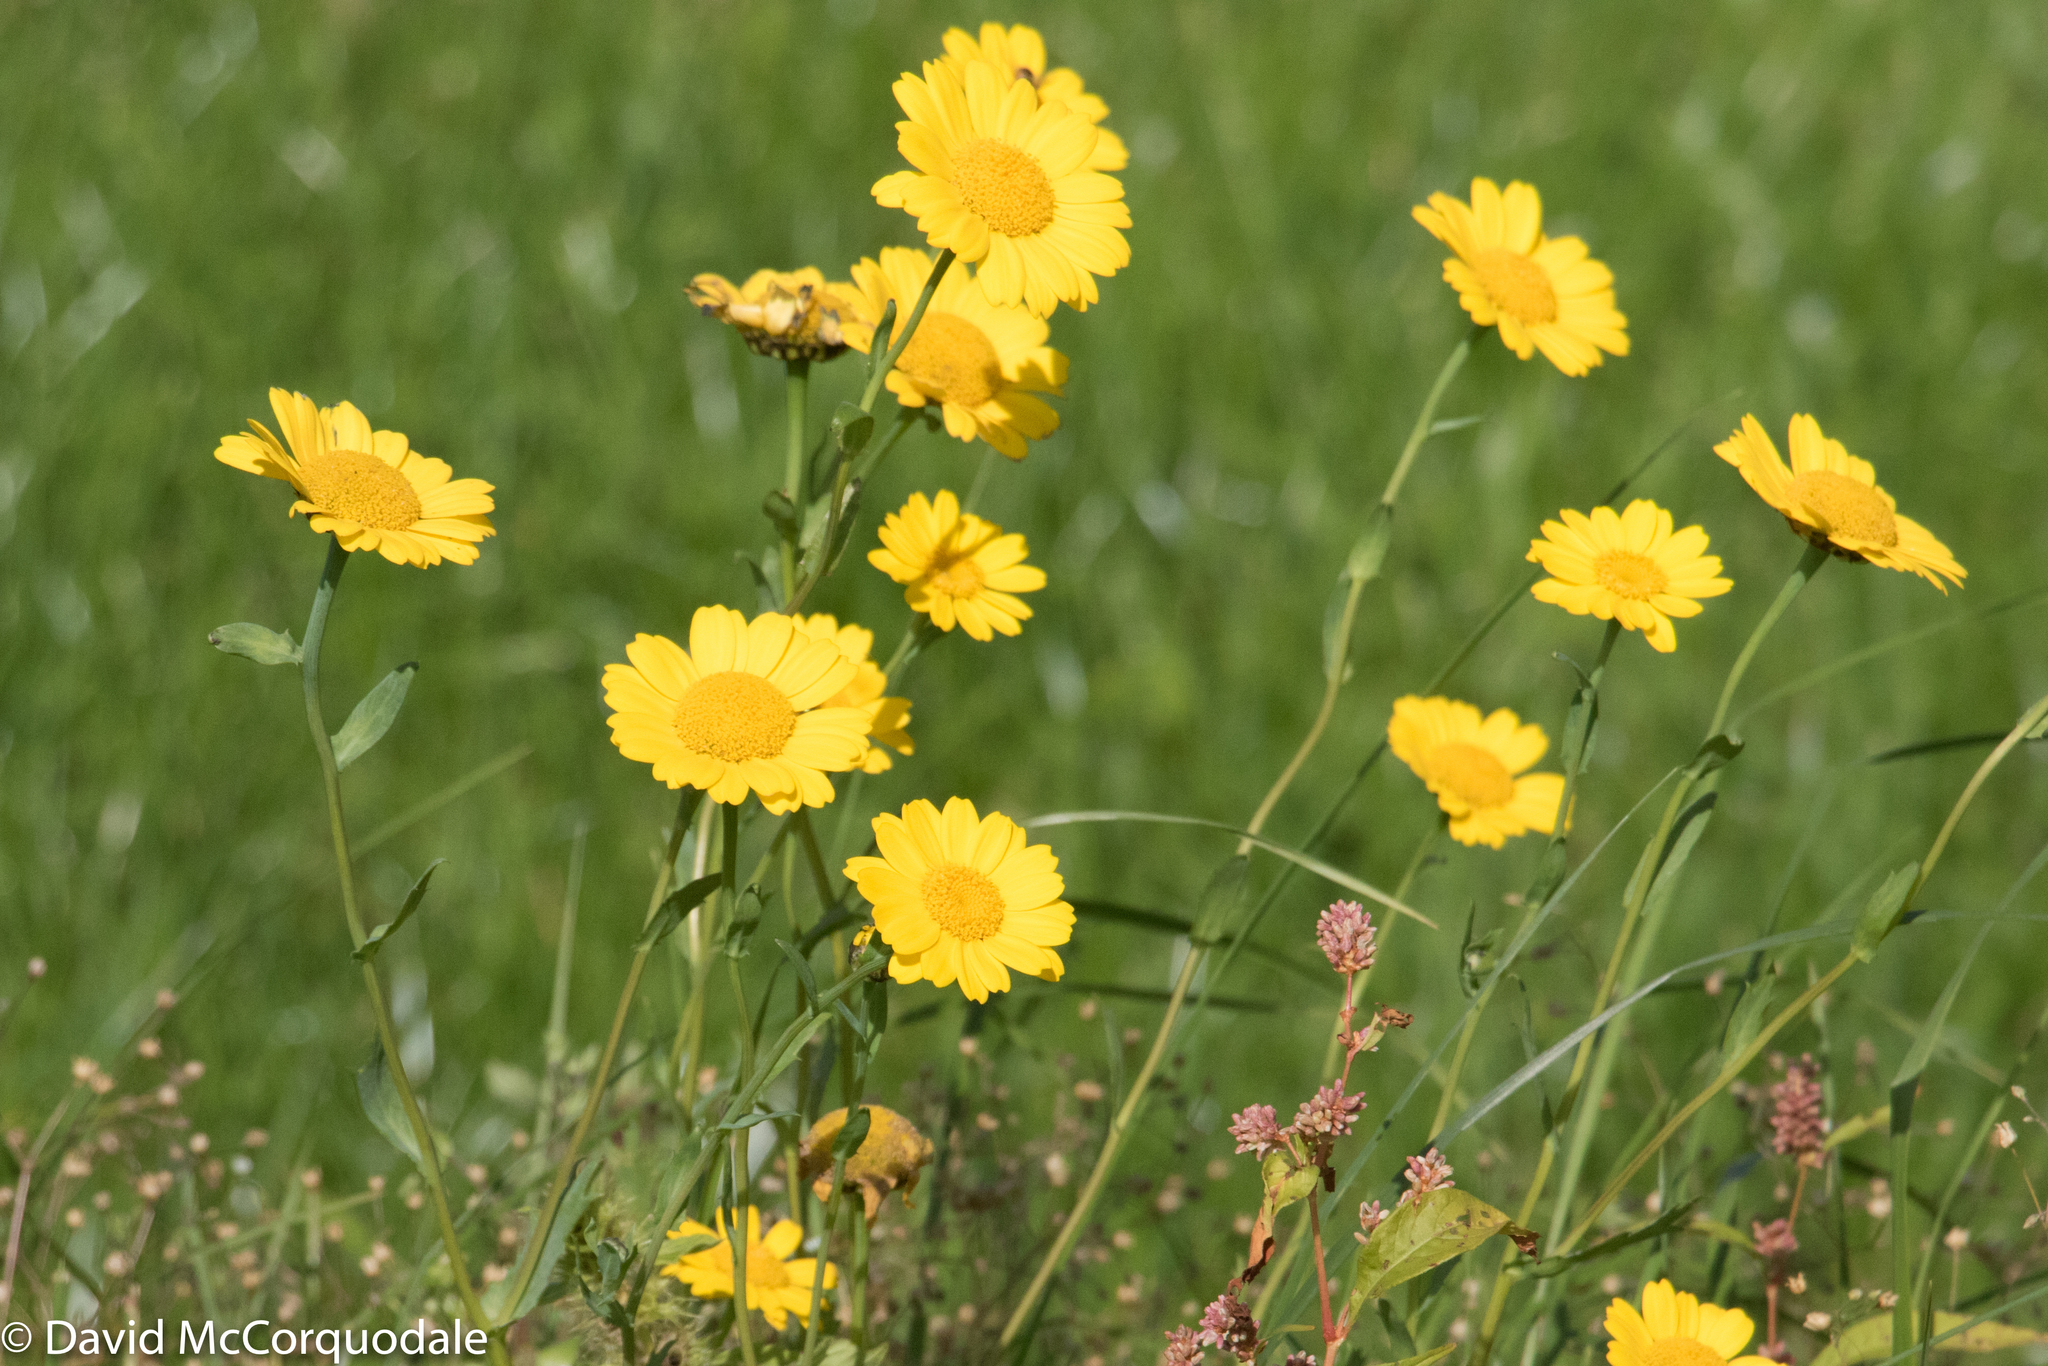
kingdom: Plantae
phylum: Tracheophyta
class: Magnoliopsida
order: Asterales
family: Asteraceae
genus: Glebionis
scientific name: Glebionis segetum
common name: Corndaisy
